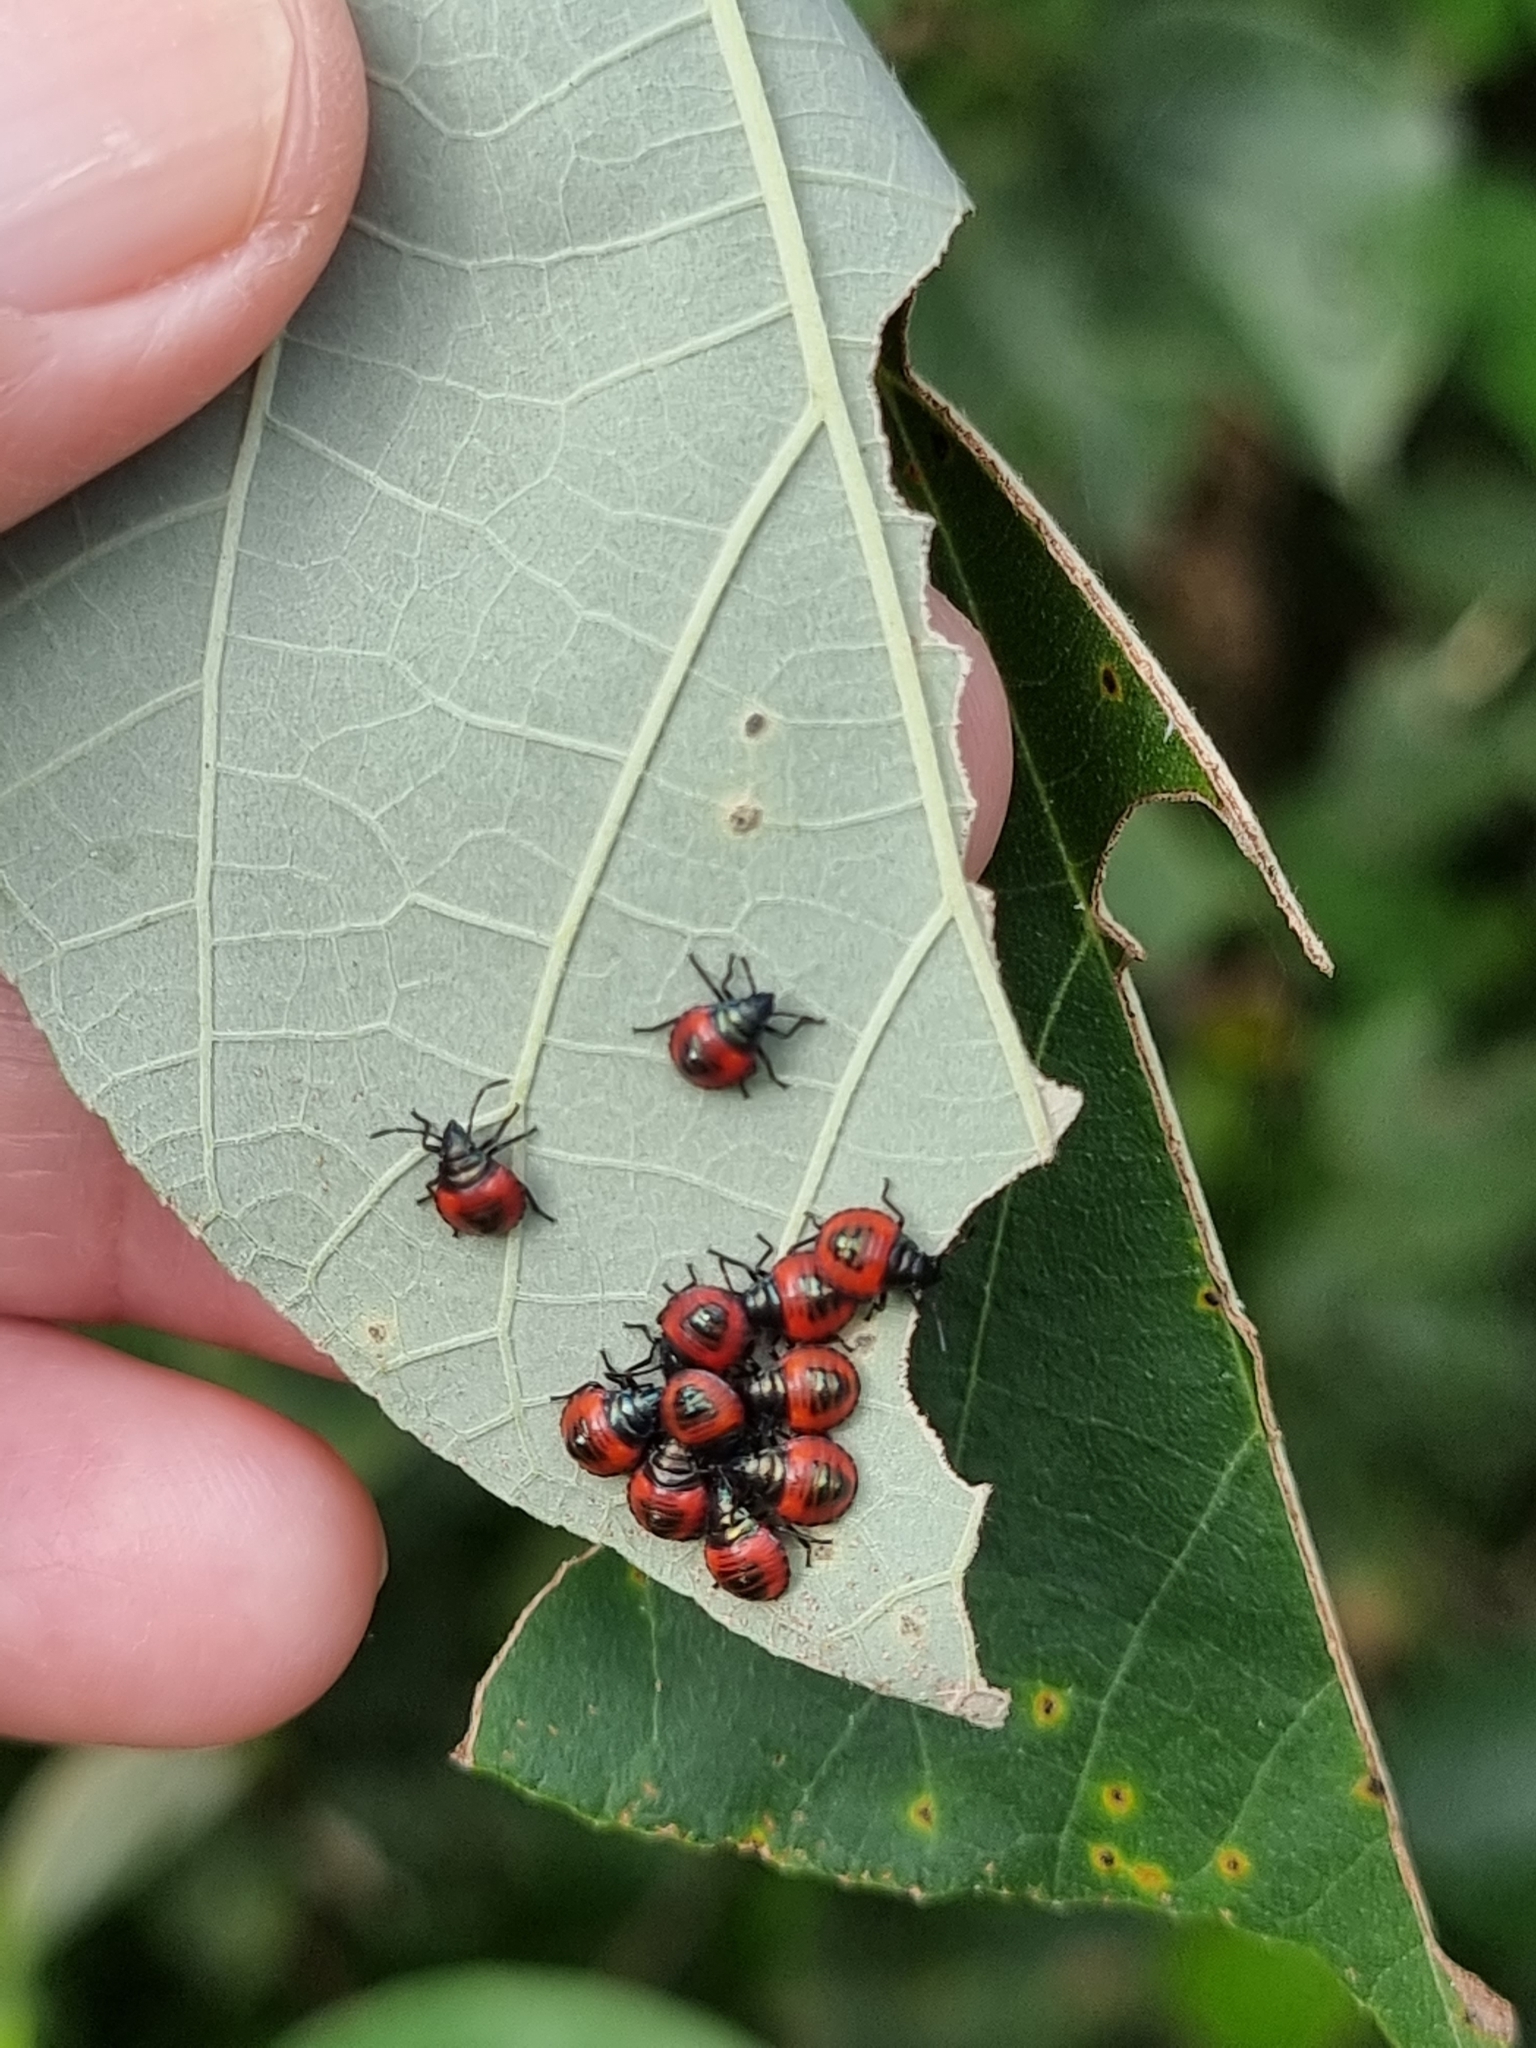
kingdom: Animalia
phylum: Arthropoda
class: Insecta
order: Hemiptera
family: Scutelleridae
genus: Tectocoris
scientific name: Tectocoris diophthalmus
